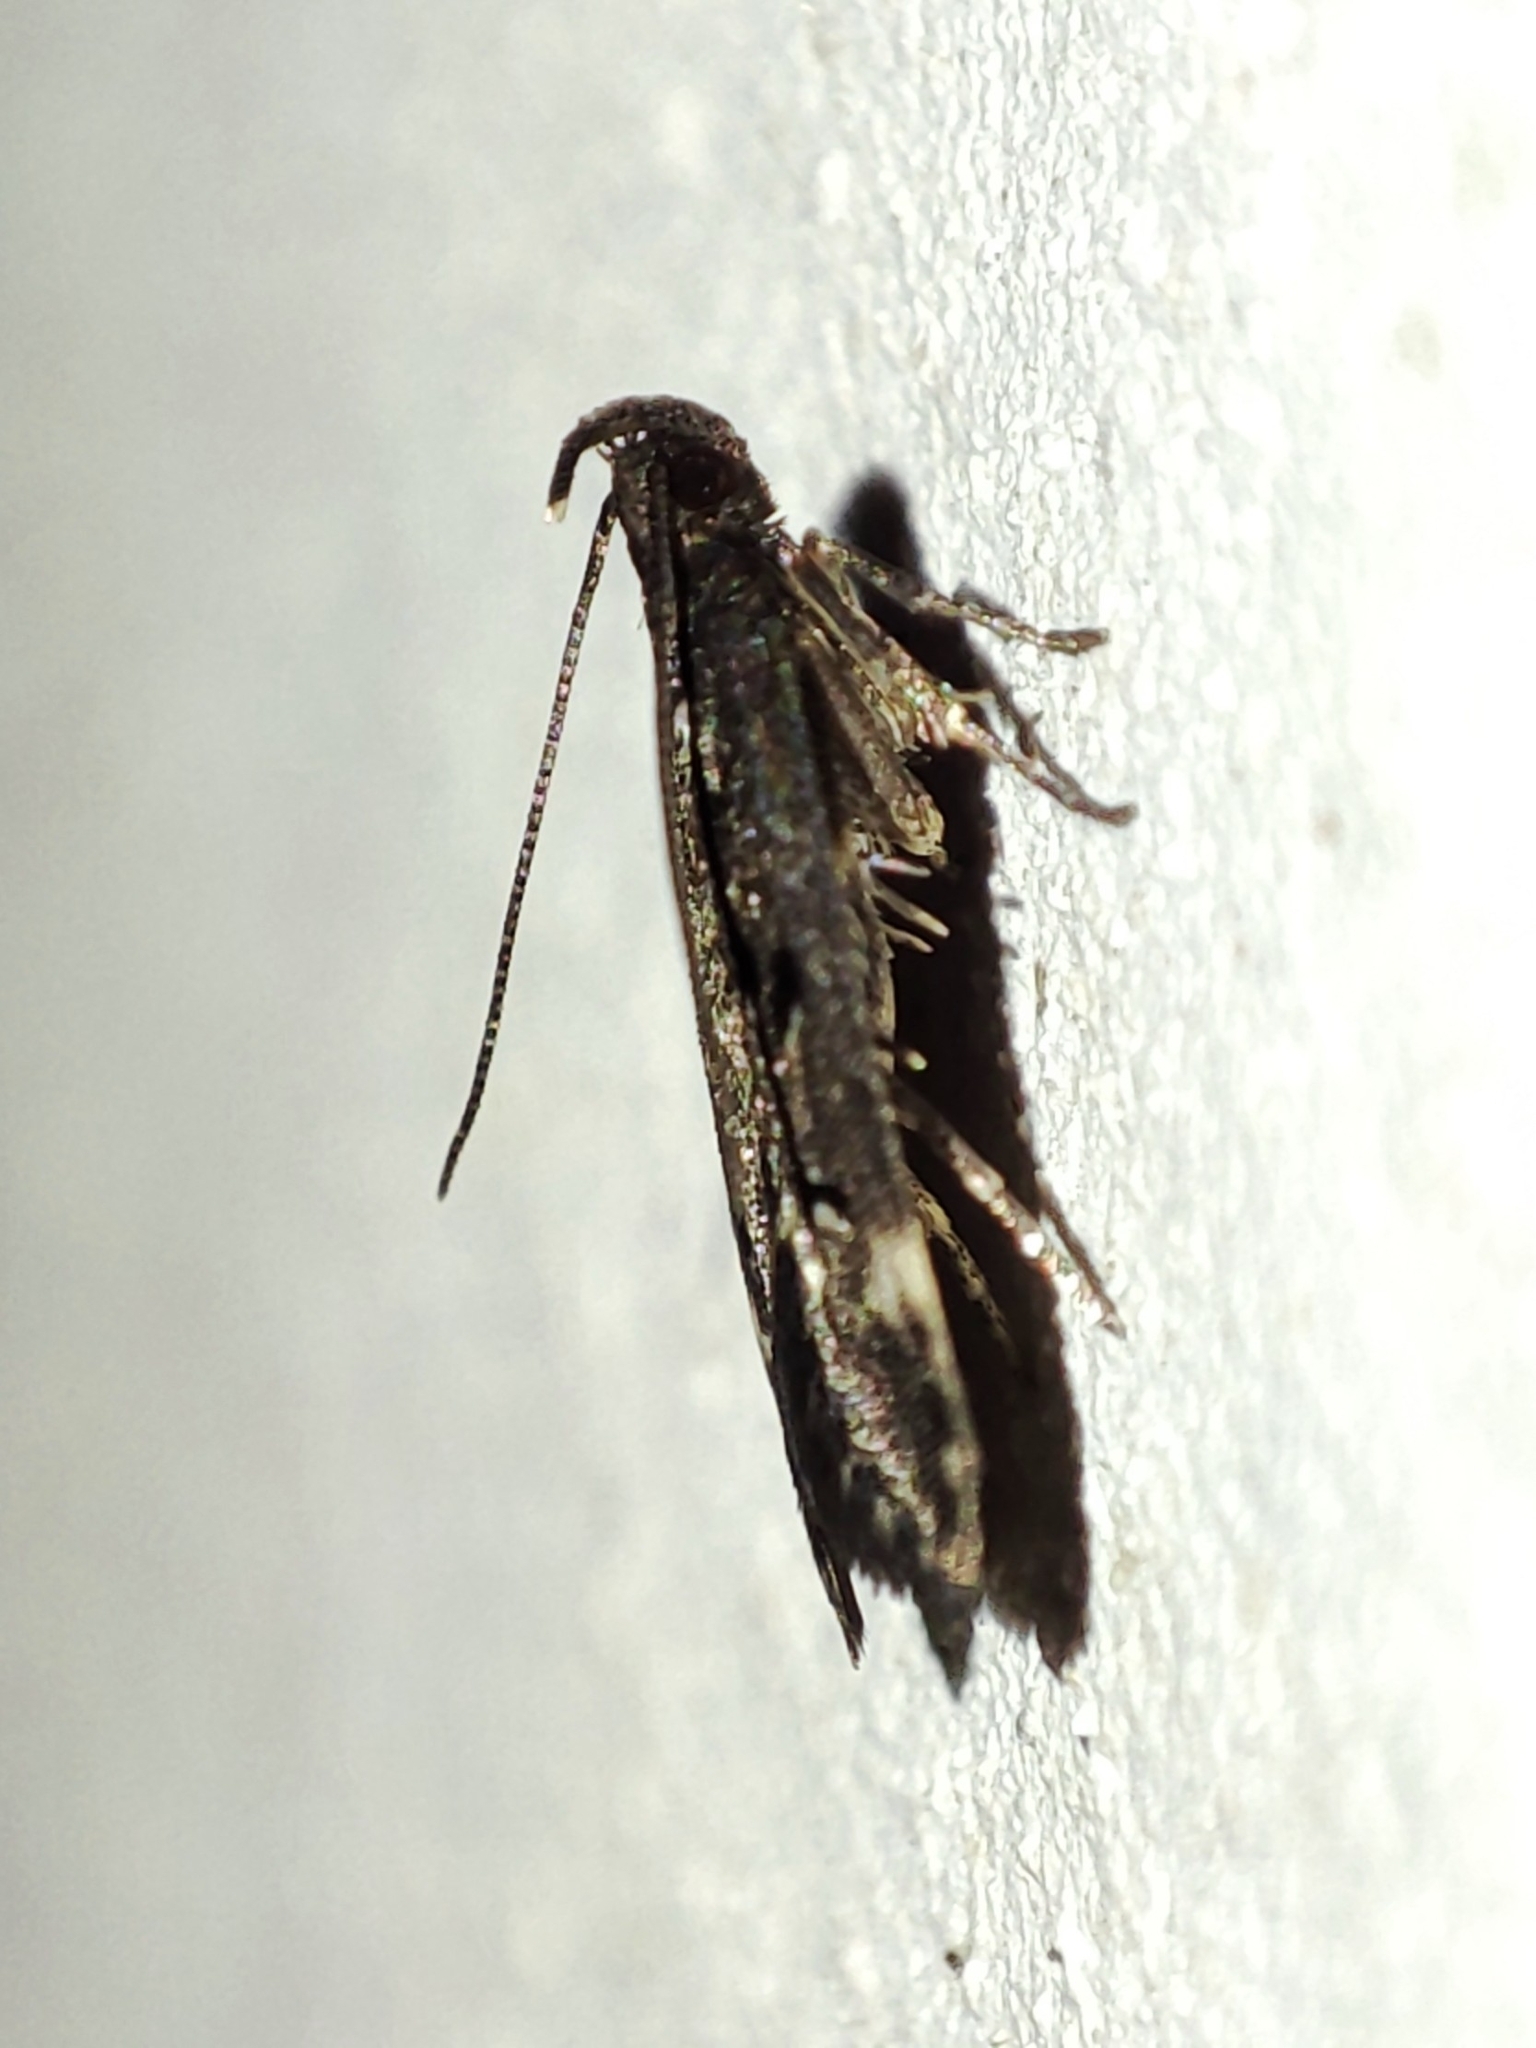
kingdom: Animalia
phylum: Arthropoda
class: Insecta
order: Lepidoptera
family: Gelechiidae
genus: Acanthophila
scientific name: Acanthophila alacella
